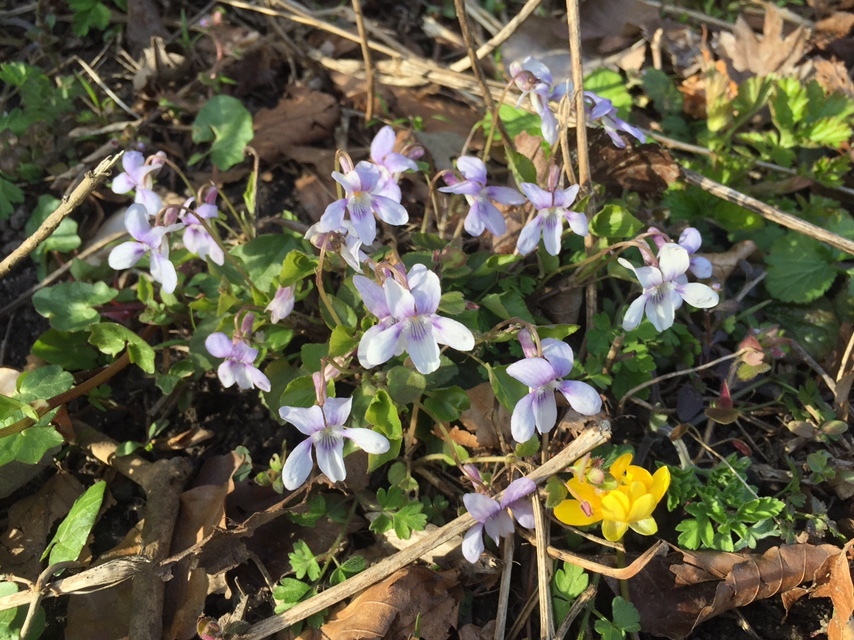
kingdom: Plantae
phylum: Tracheophyta
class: Magnoliopsida
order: Malpighiales
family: Violaceae
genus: Viola
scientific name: Viola reichenbachiana
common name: Early dog-violet
